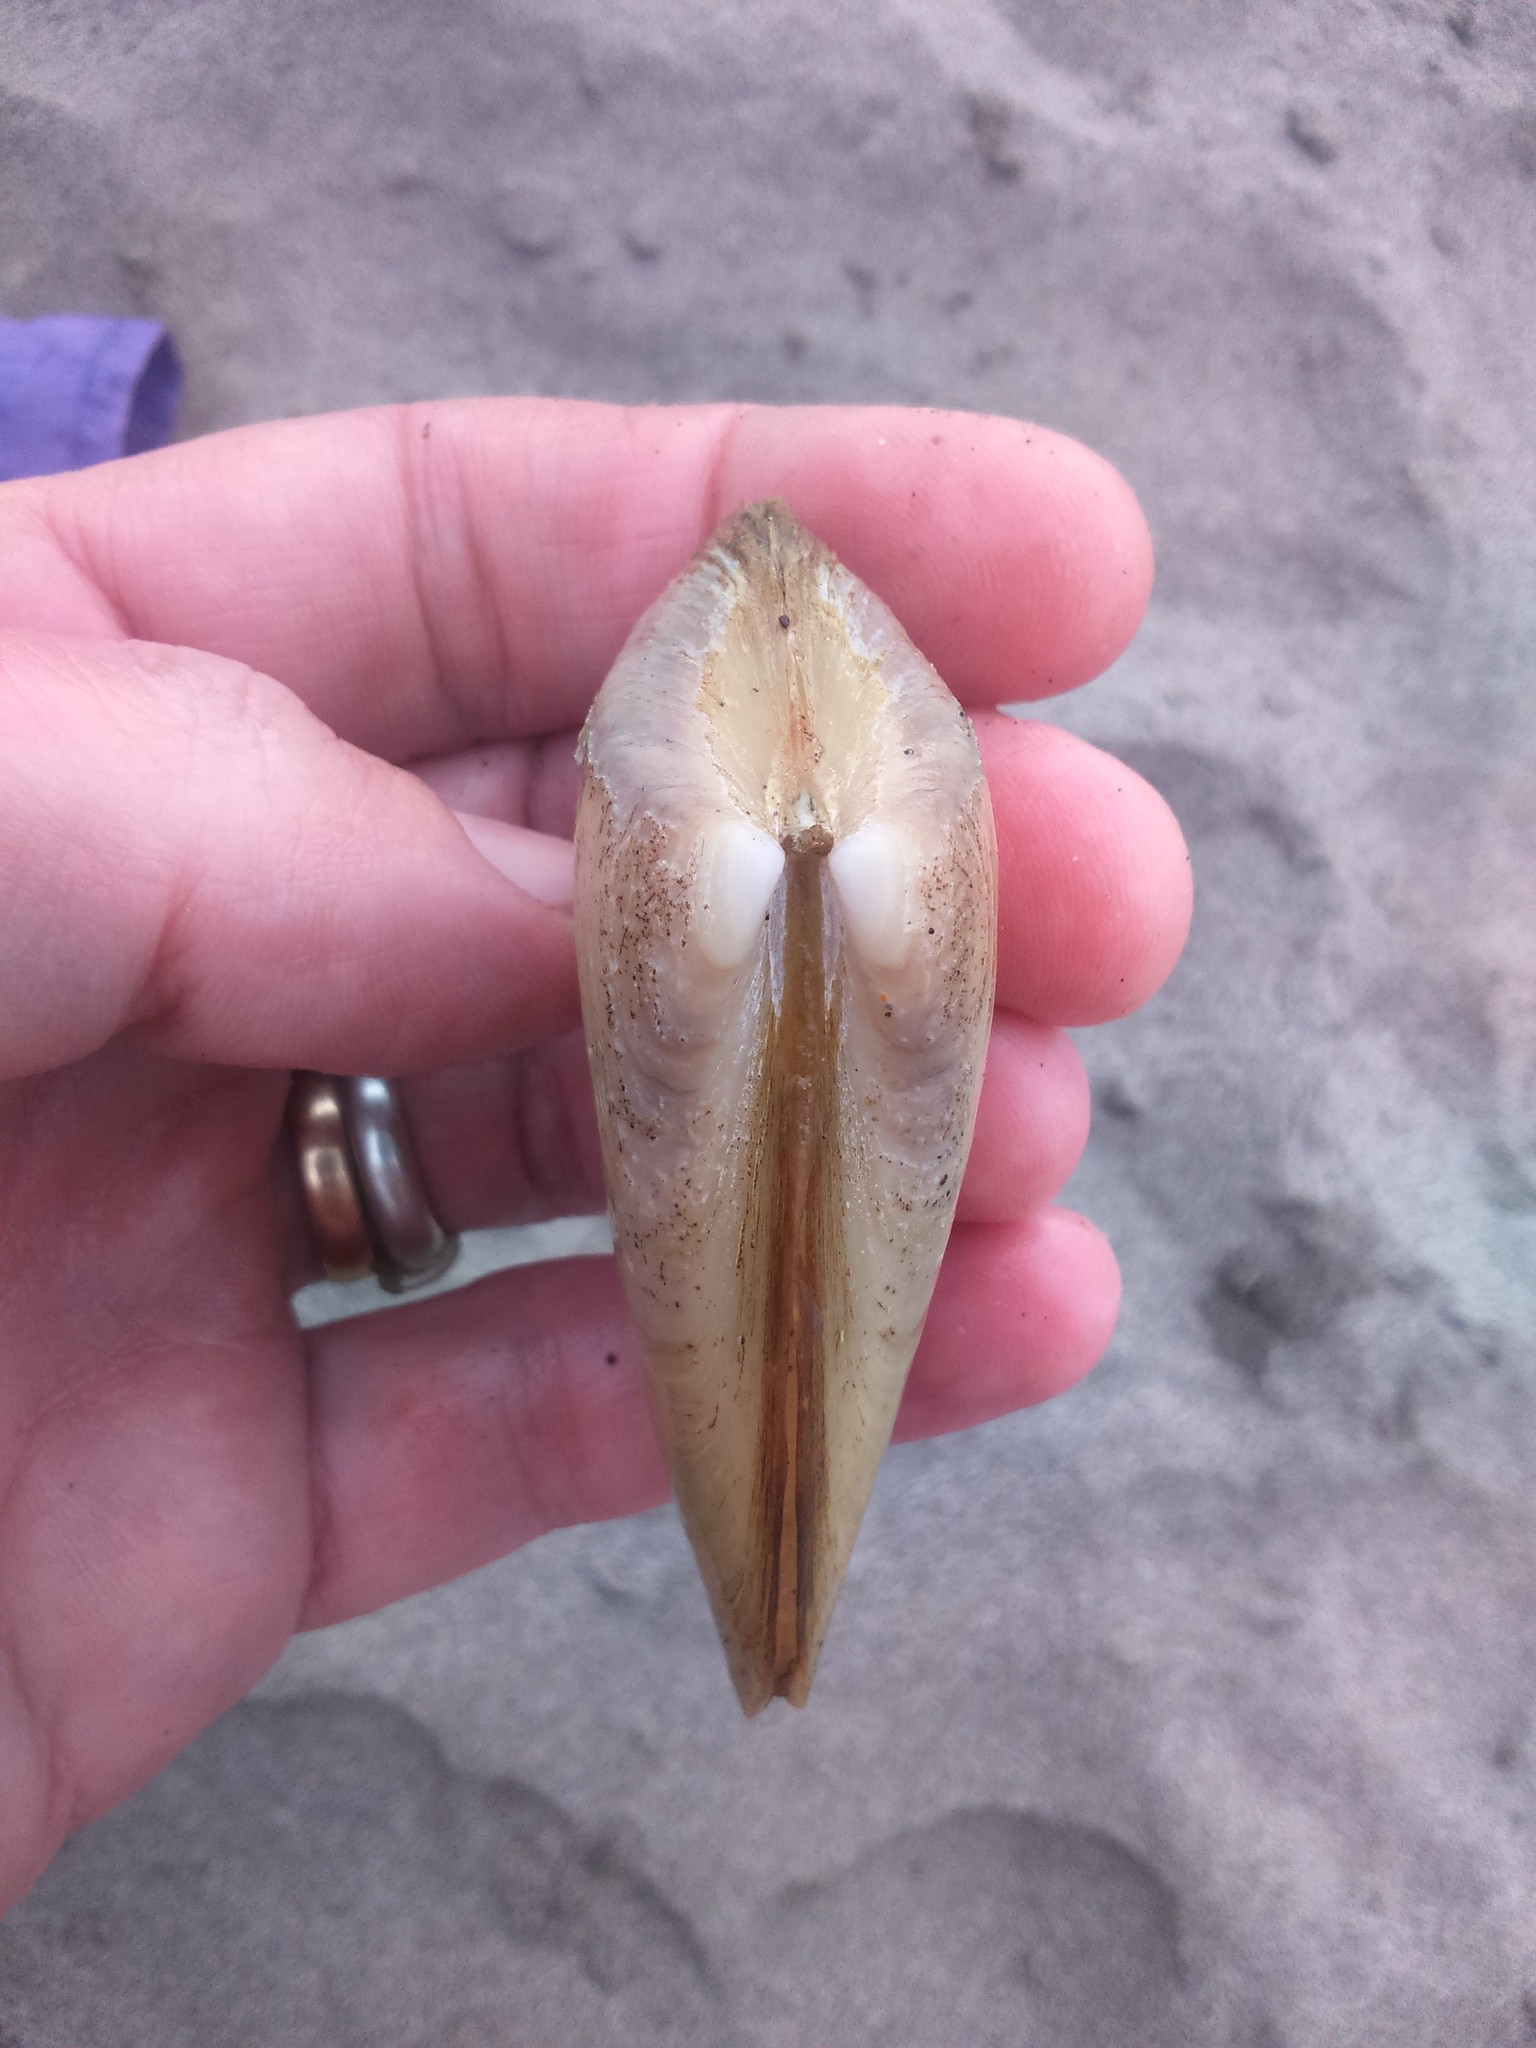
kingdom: Animalia
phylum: Mollusca
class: Bivalvia
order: Venerida
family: Mesodesmatidae
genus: Mesodesma
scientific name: Mesodesma donacium
